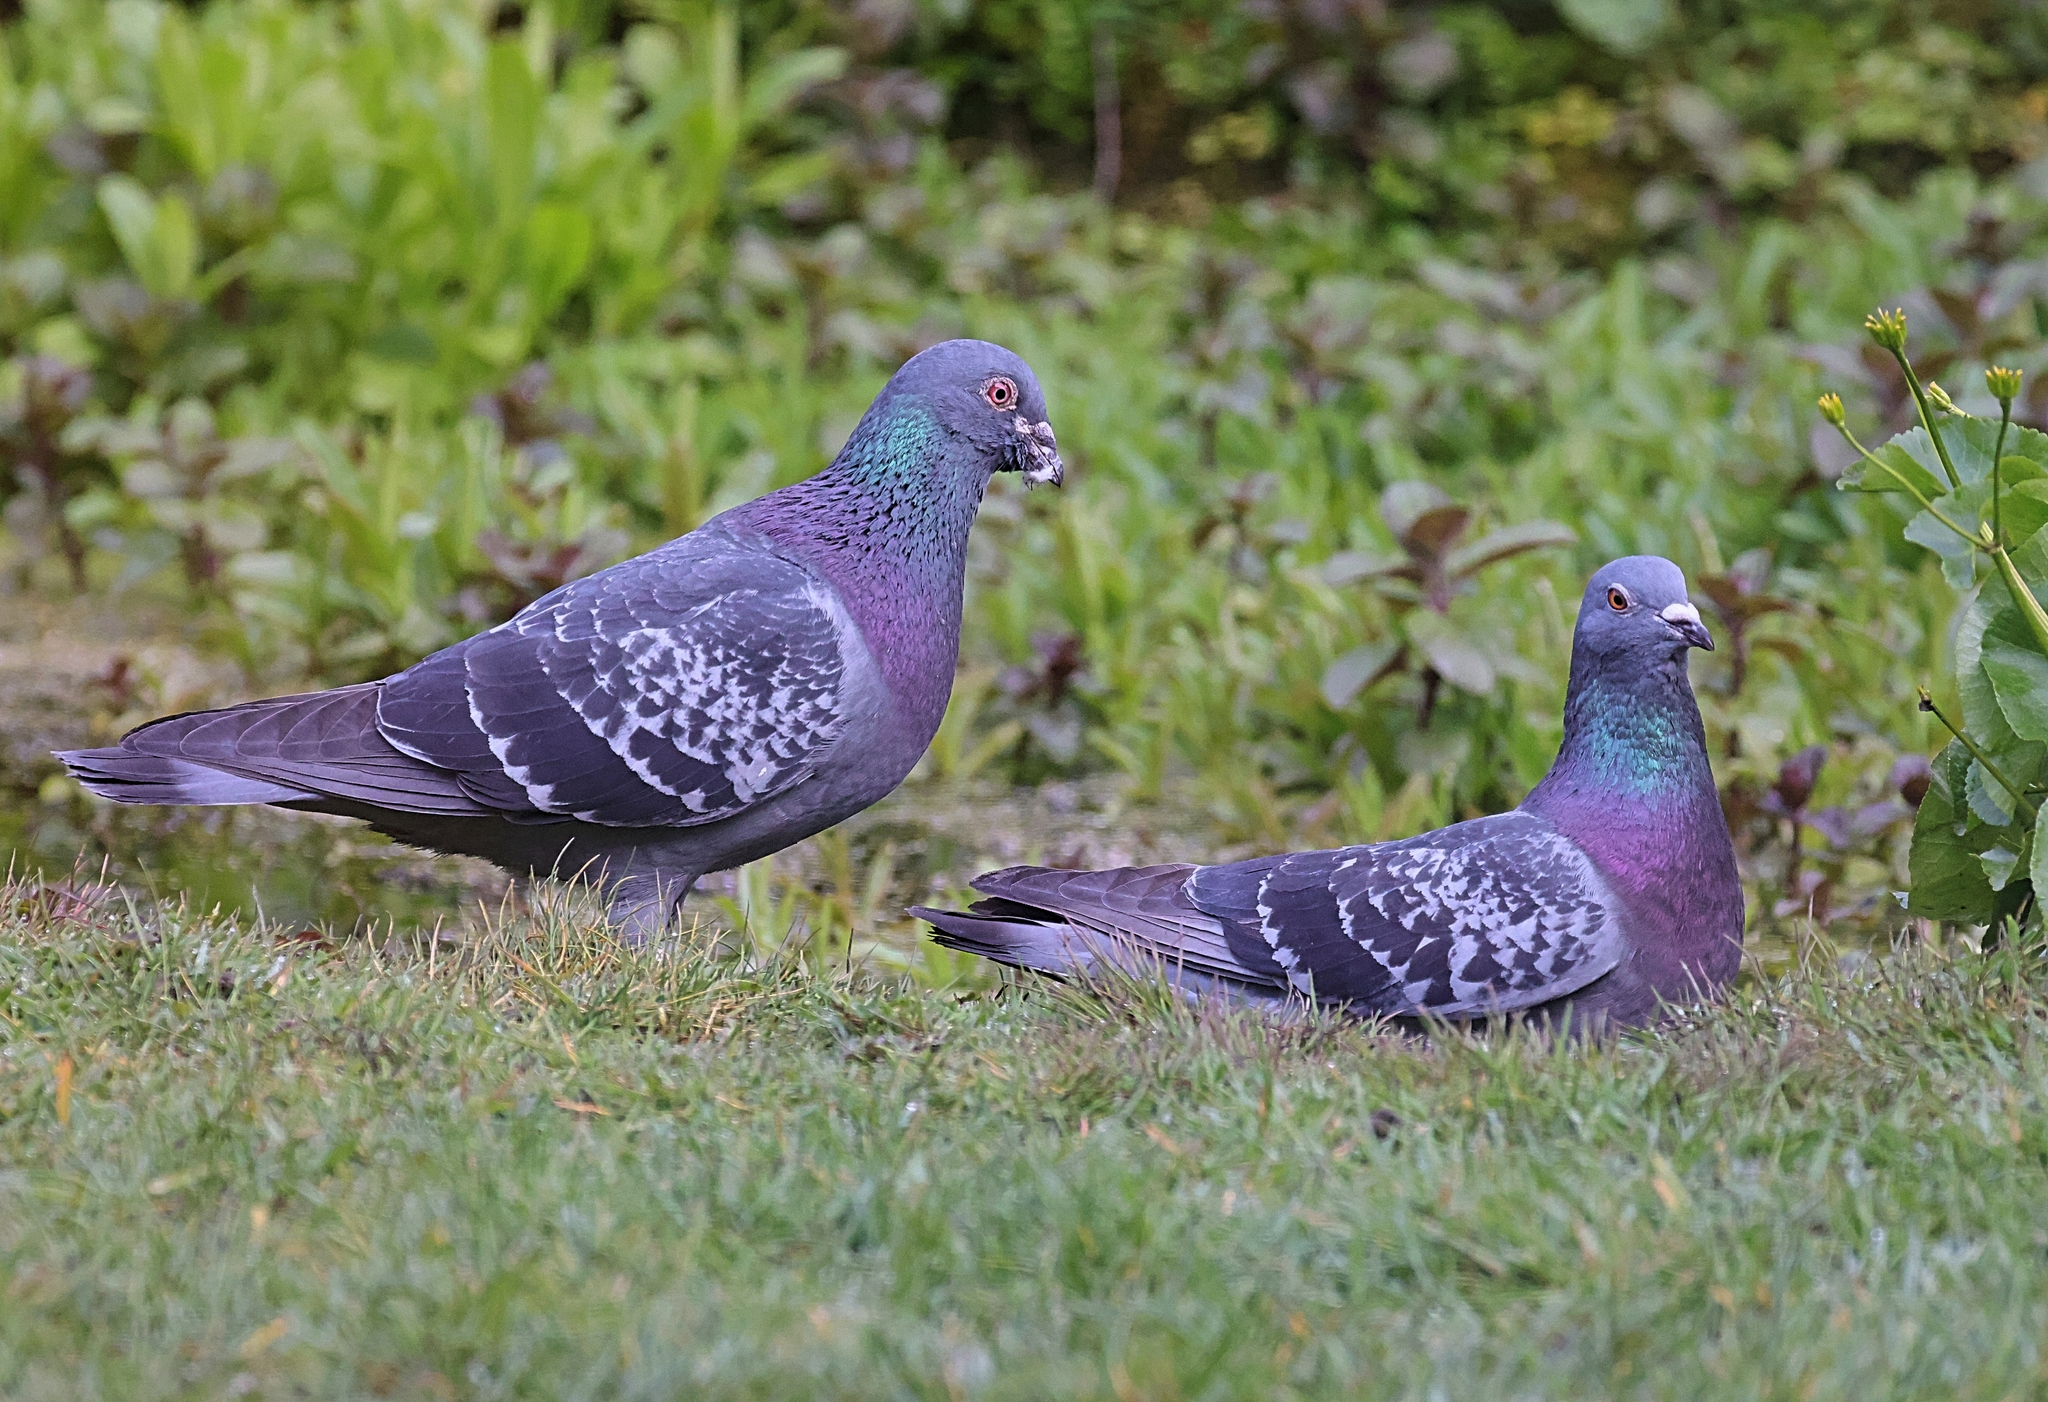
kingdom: Animalia
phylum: Chordata
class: Aves
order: Columbiformes
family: Columbidae
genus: Columba
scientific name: Columba livia
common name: Rock pigeon
